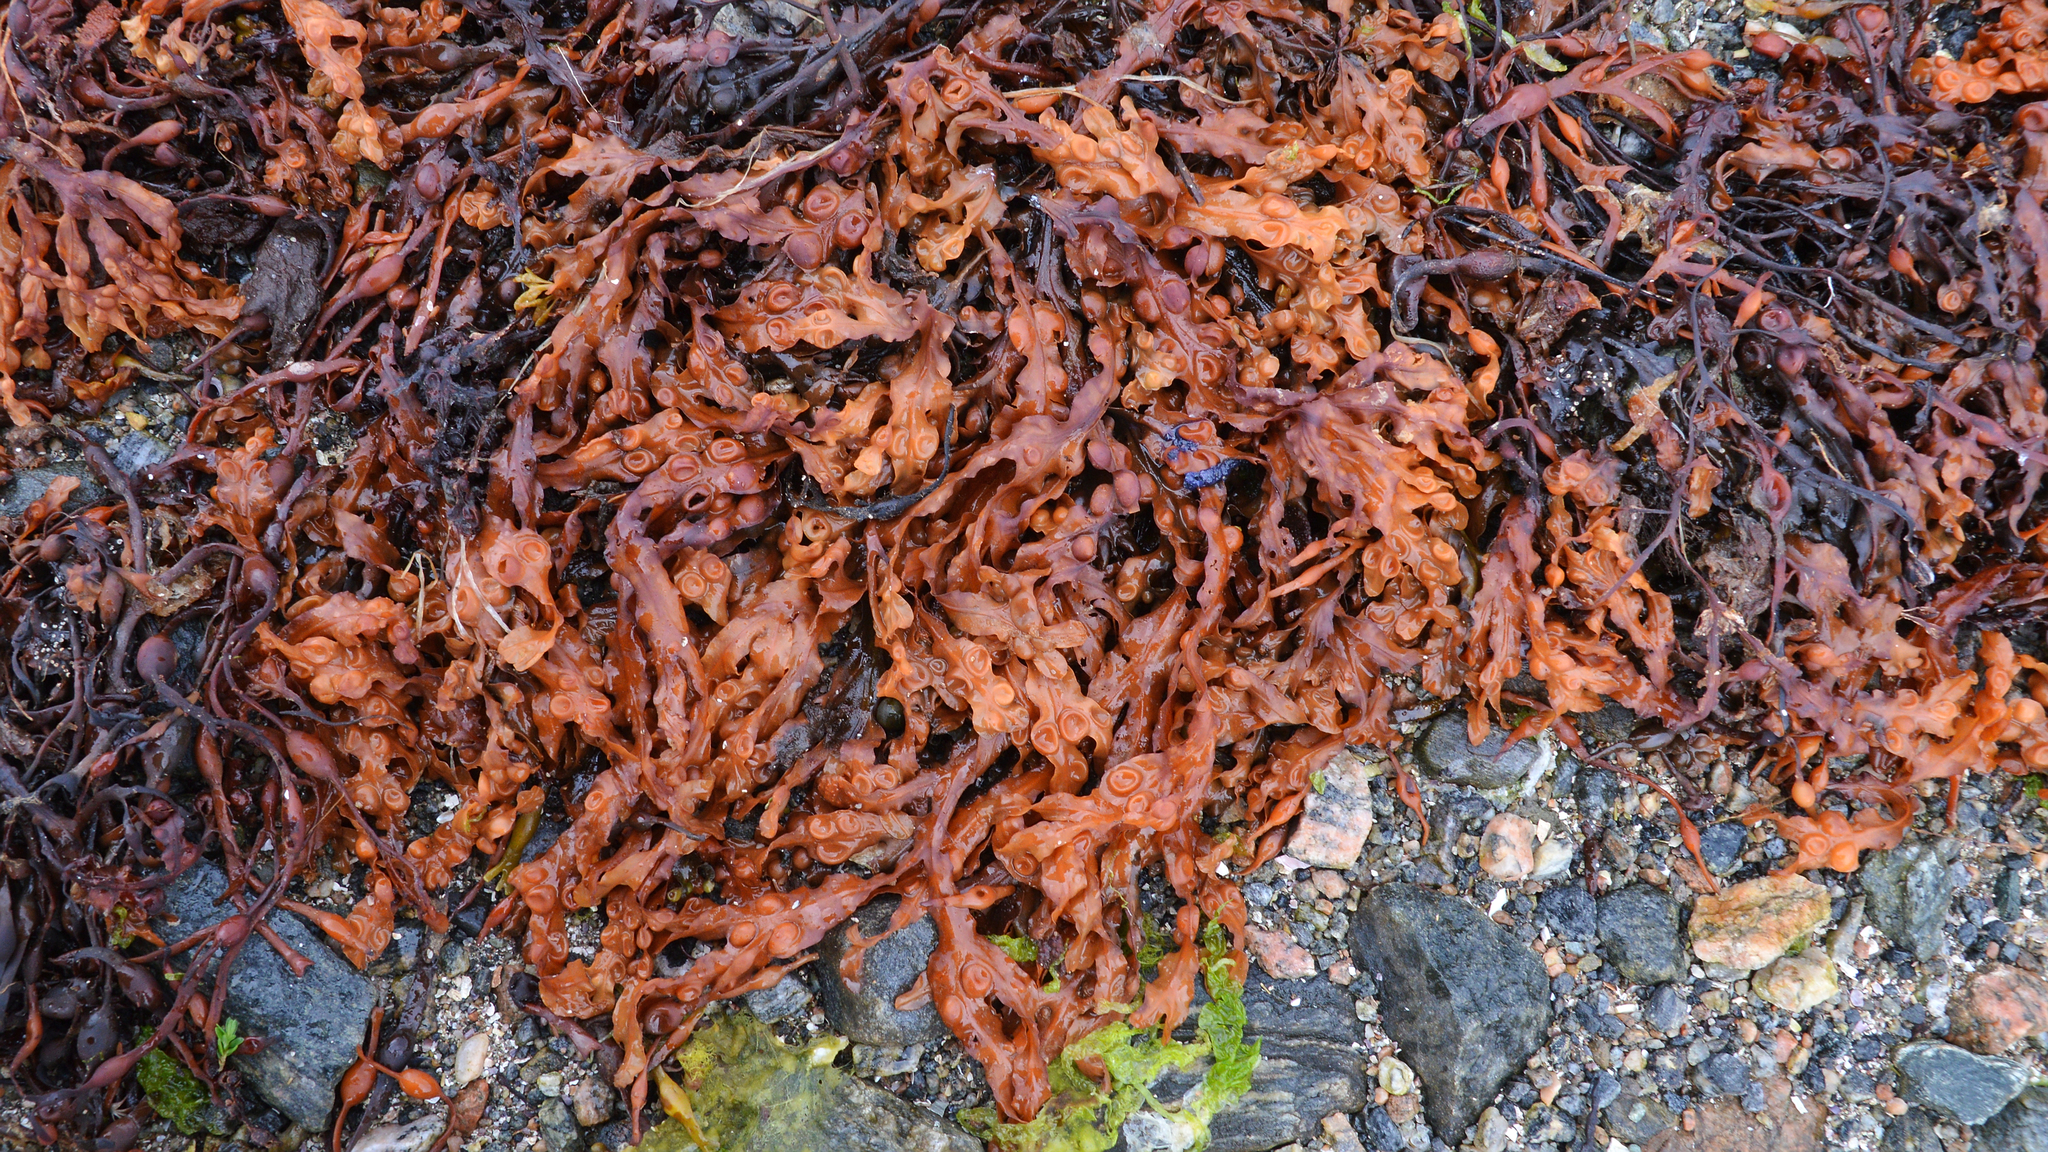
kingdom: Chromista
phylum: Ochrophyta
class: Phaeophyceae
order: Fucales
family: Fucaceae
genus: Fucus
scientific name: Fucus vesiculosus
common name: Bladder wrack
